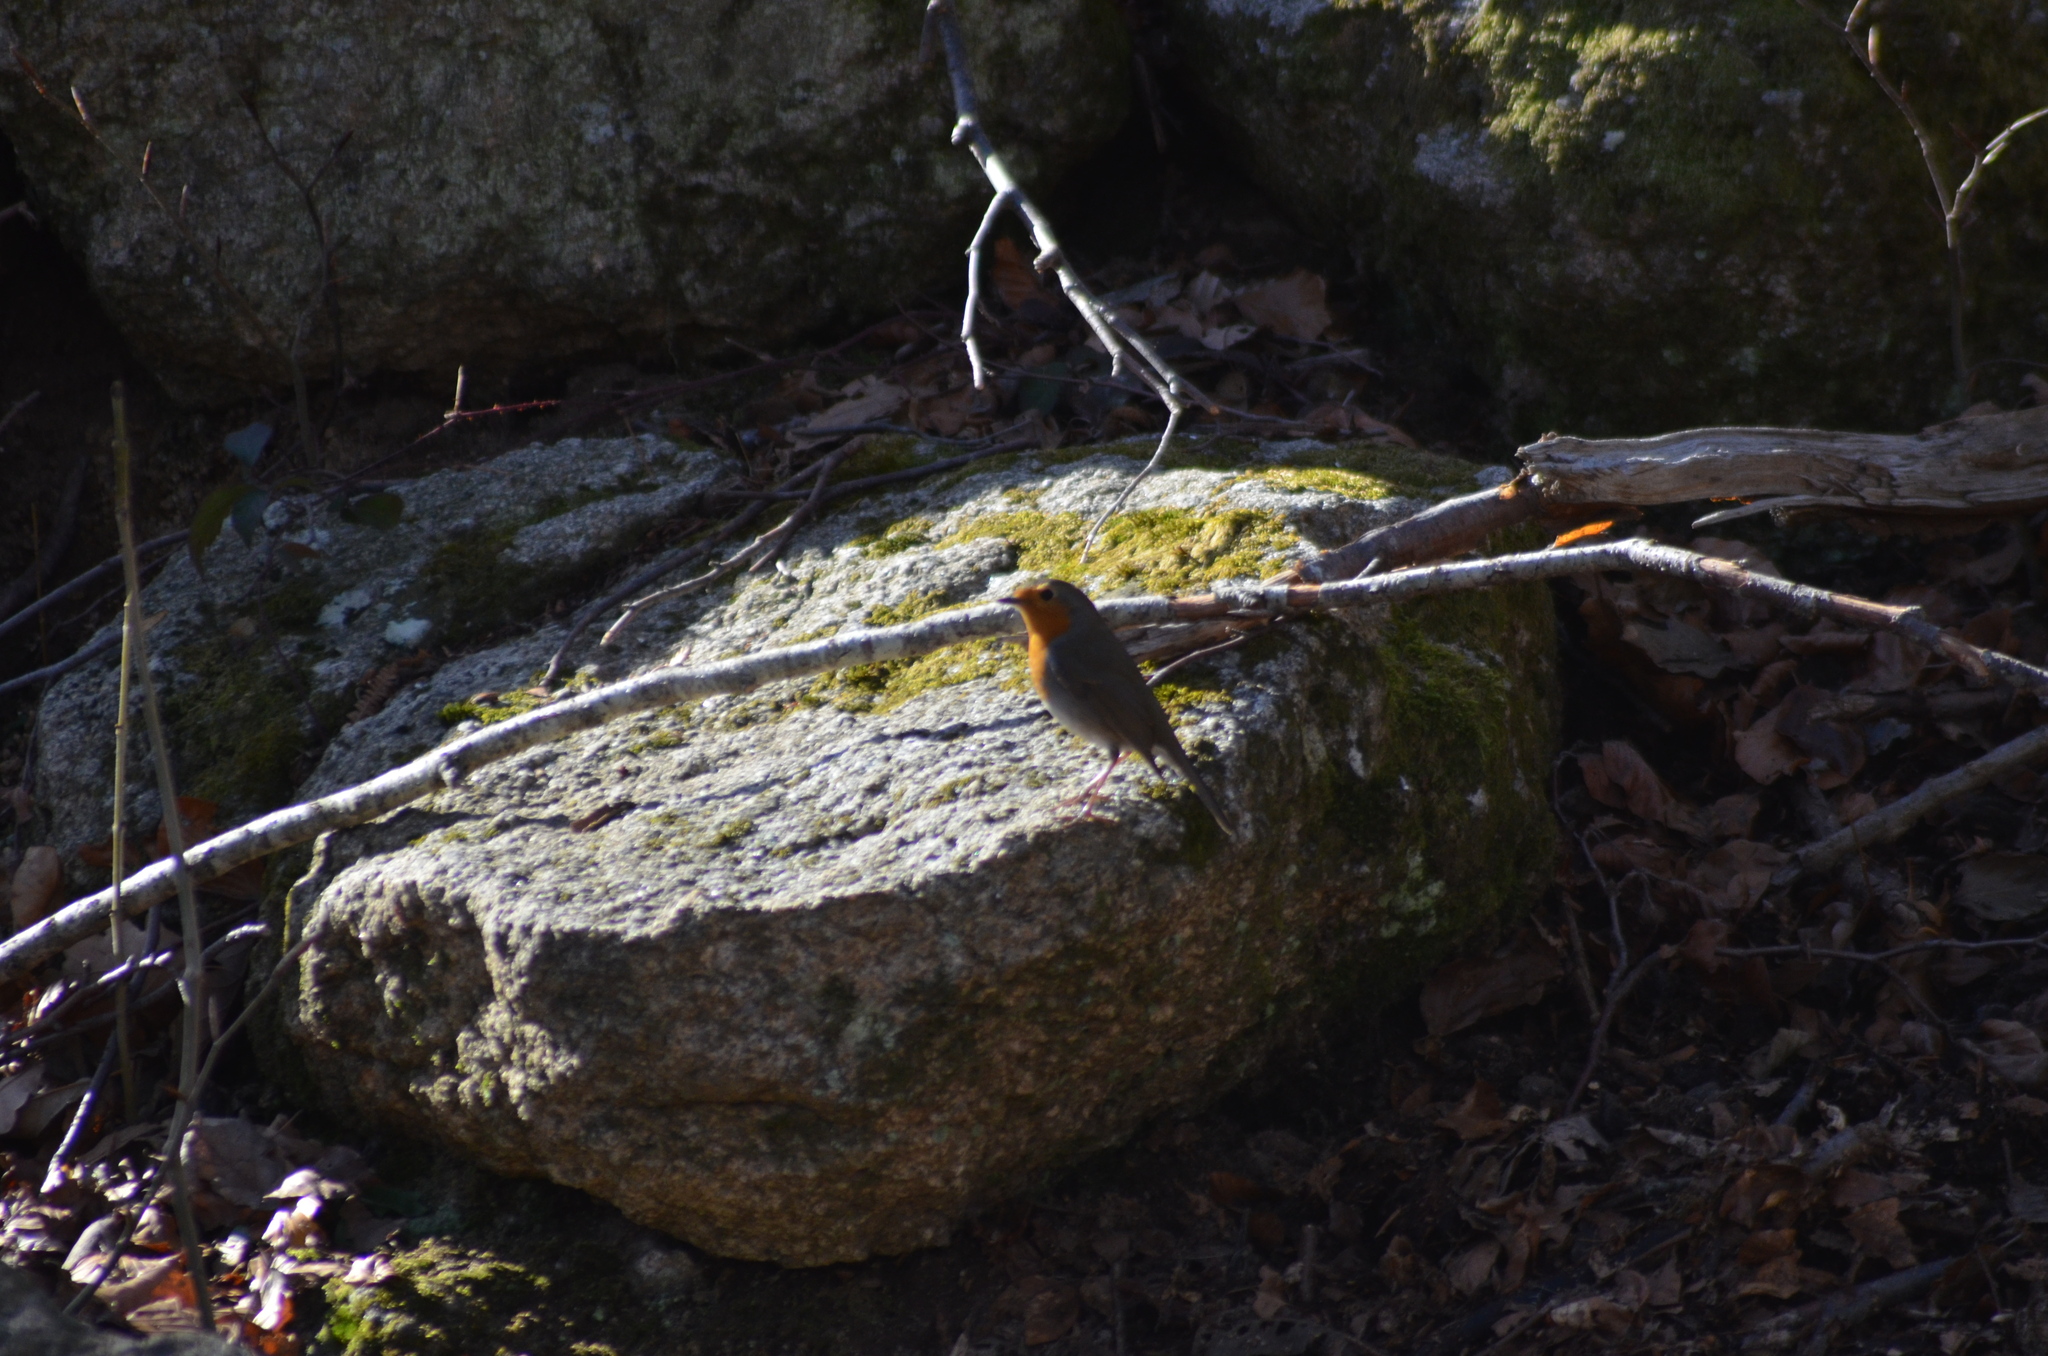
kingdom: Animalia
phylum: Chordata
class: Aves
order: Passeriformes
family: Muscicapidae
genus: Erithacus
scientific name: Erithacus rubecula
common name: European robin
